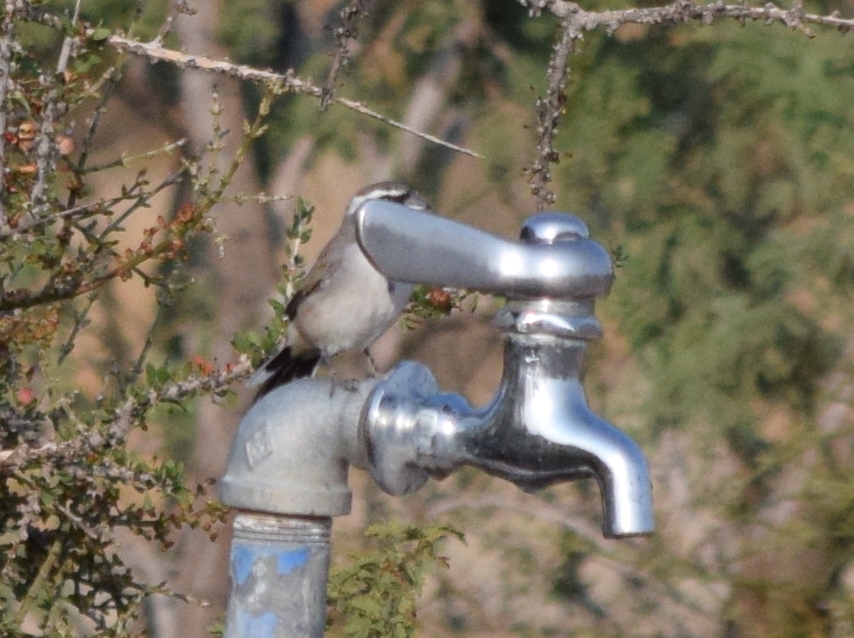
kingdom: Animalia
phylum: Chordata
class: Aves
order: Passeriformes
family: Passerellidae
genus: Amphispiza
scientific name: Amphispiza bilineata
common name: Black-throated sparrow
